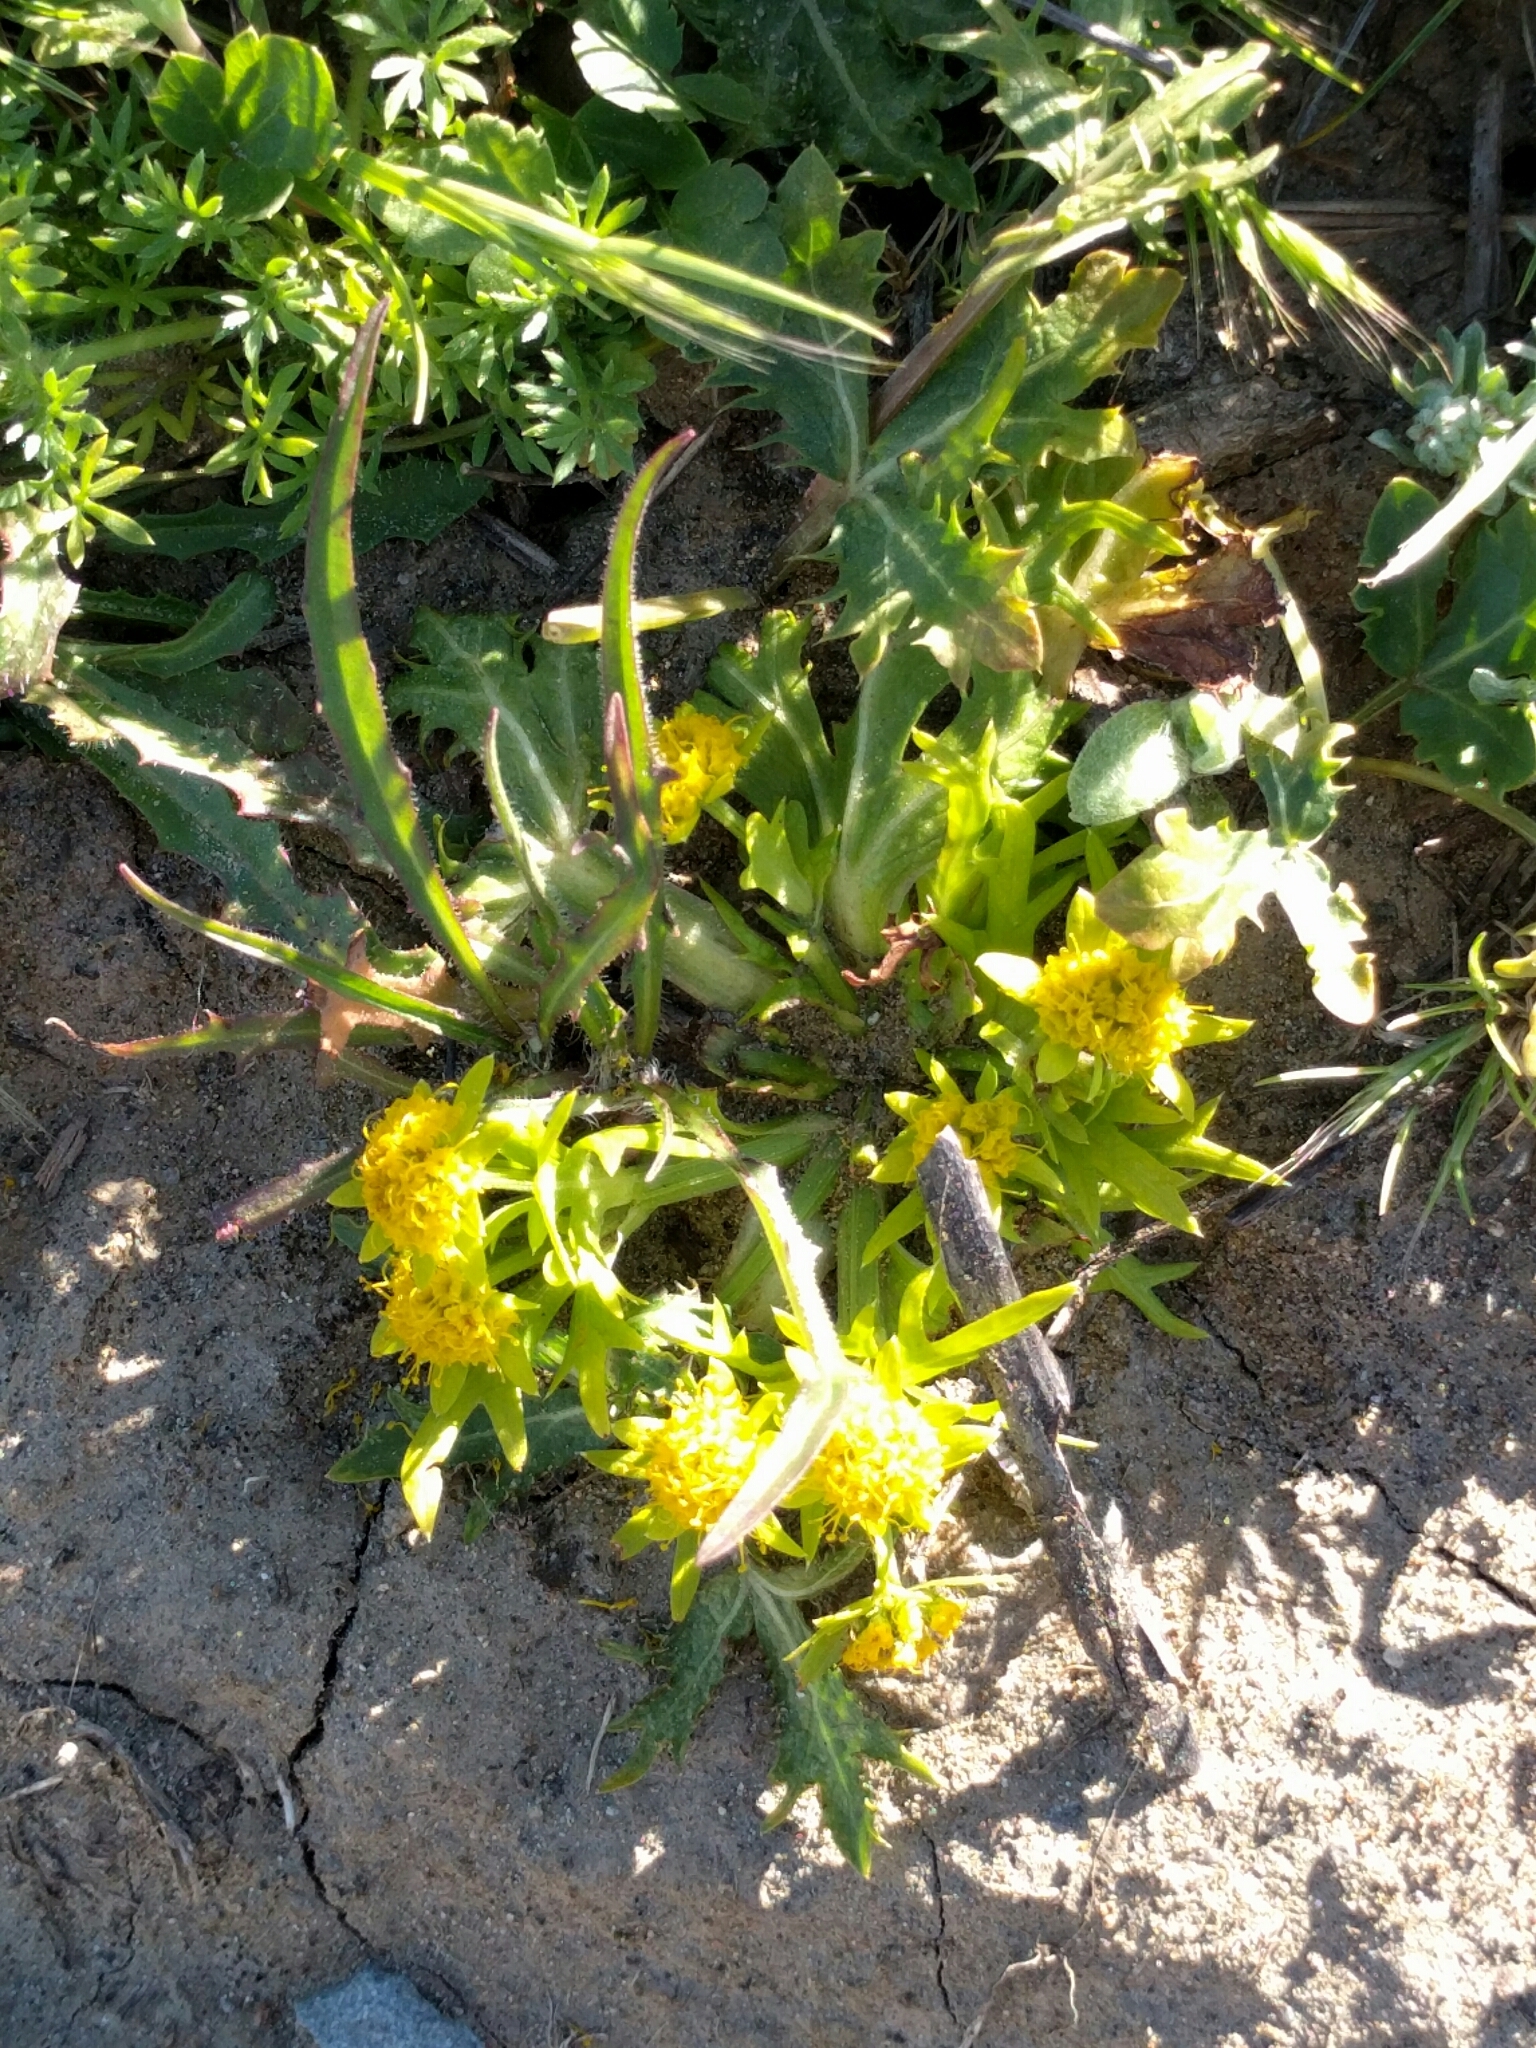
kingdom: Plantae
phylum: Tracheophyta
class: Magnoliopsida
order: Apiales
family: Apiaceae
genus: Sanicula
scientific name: Sanicula arctopoides
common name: Footsteps-of-spring
